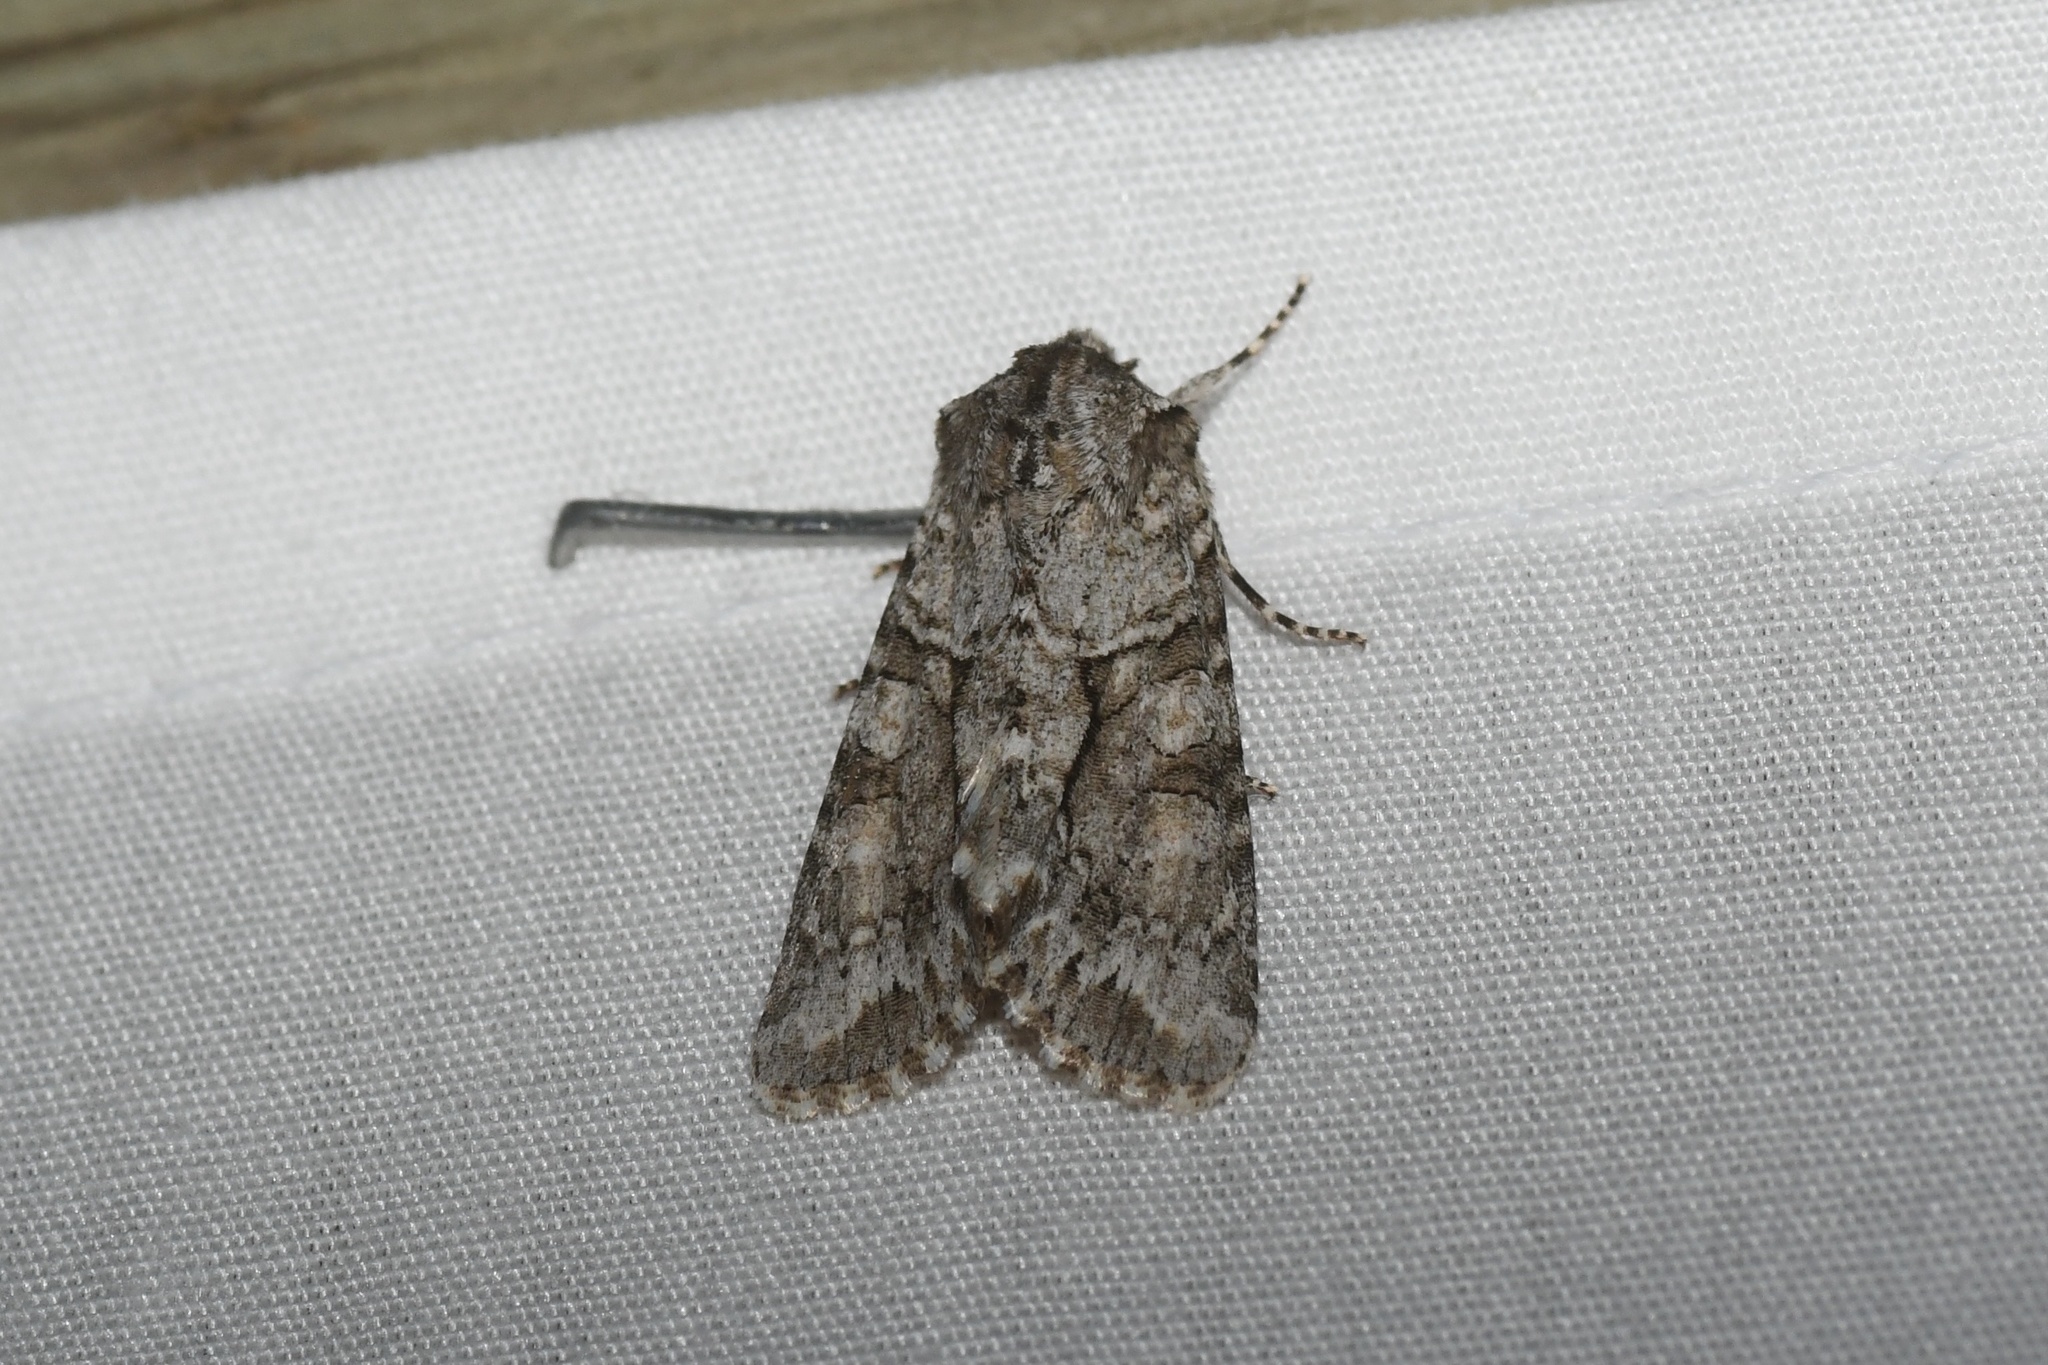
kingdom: Animalia
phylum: Arthropoda
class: Insecta
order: Lepidoptera
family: Noctuidae
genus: Achatia
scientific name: Achatia distincta
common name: Distinct quaker
